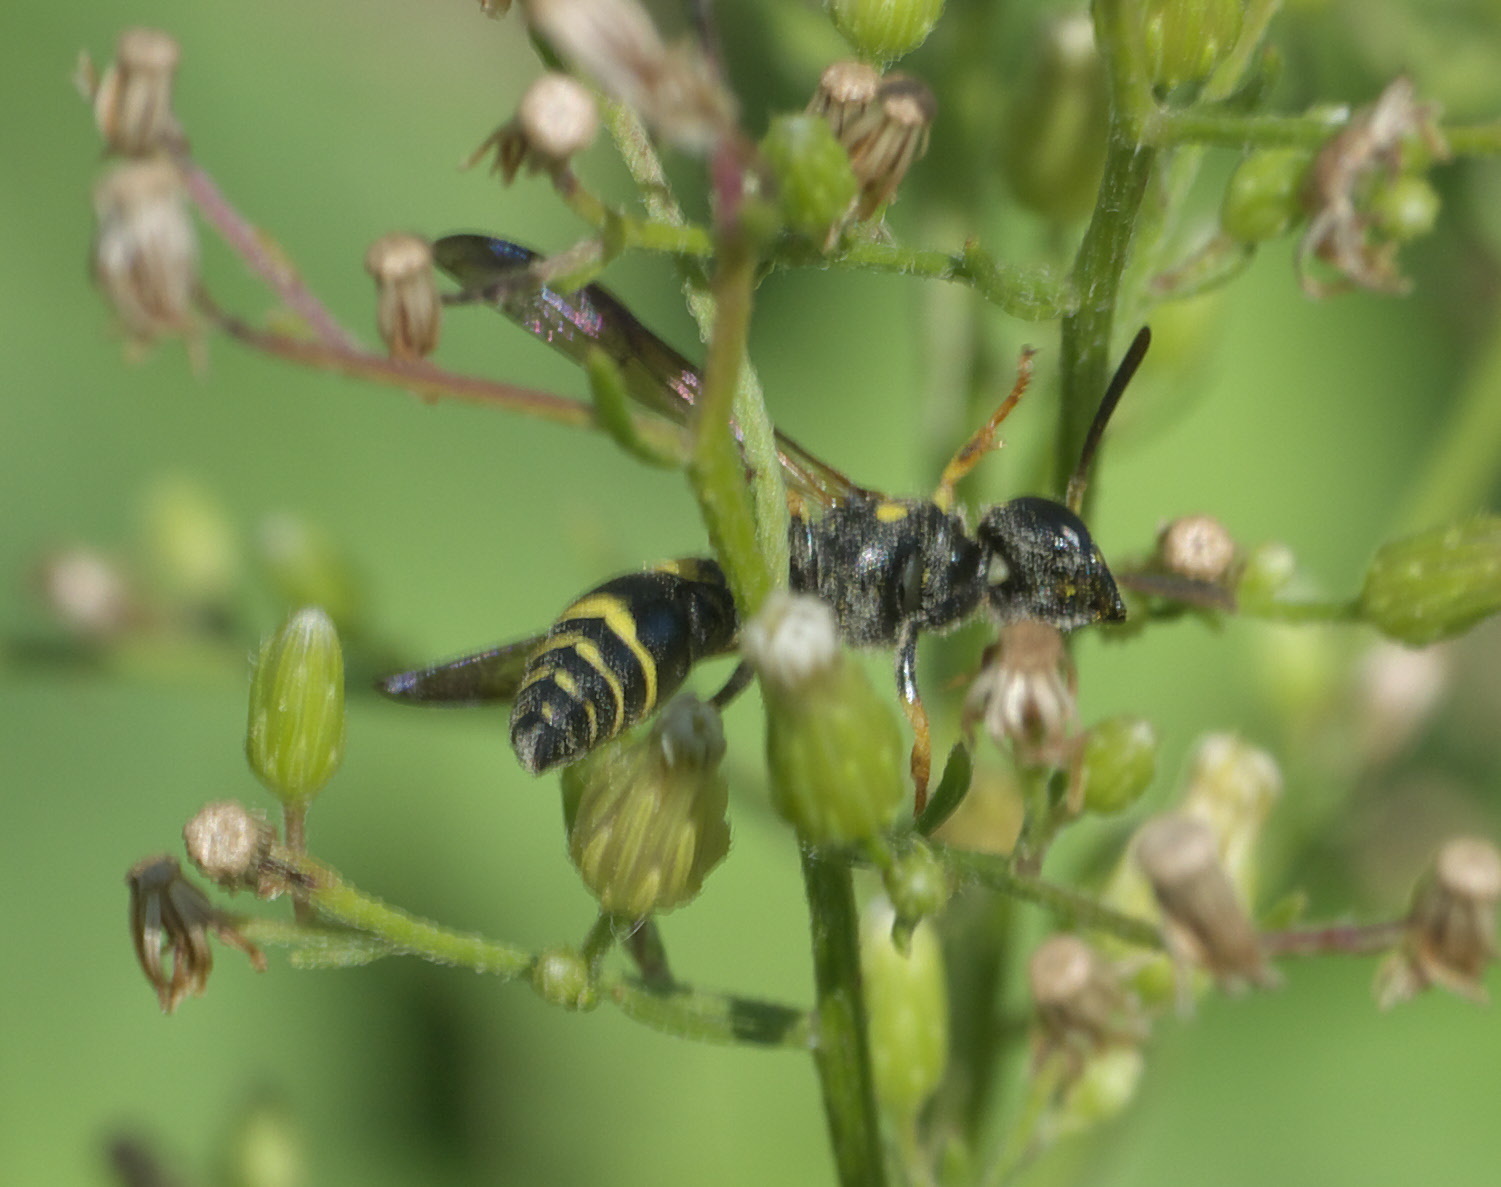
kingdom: Animalia
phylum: Arthropoda
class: Insecta
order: Hymenoptera
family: Vespidae
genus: Ancistrocerus
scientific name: Ancistrocerus adiabatus
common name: Bramble mason wasp
